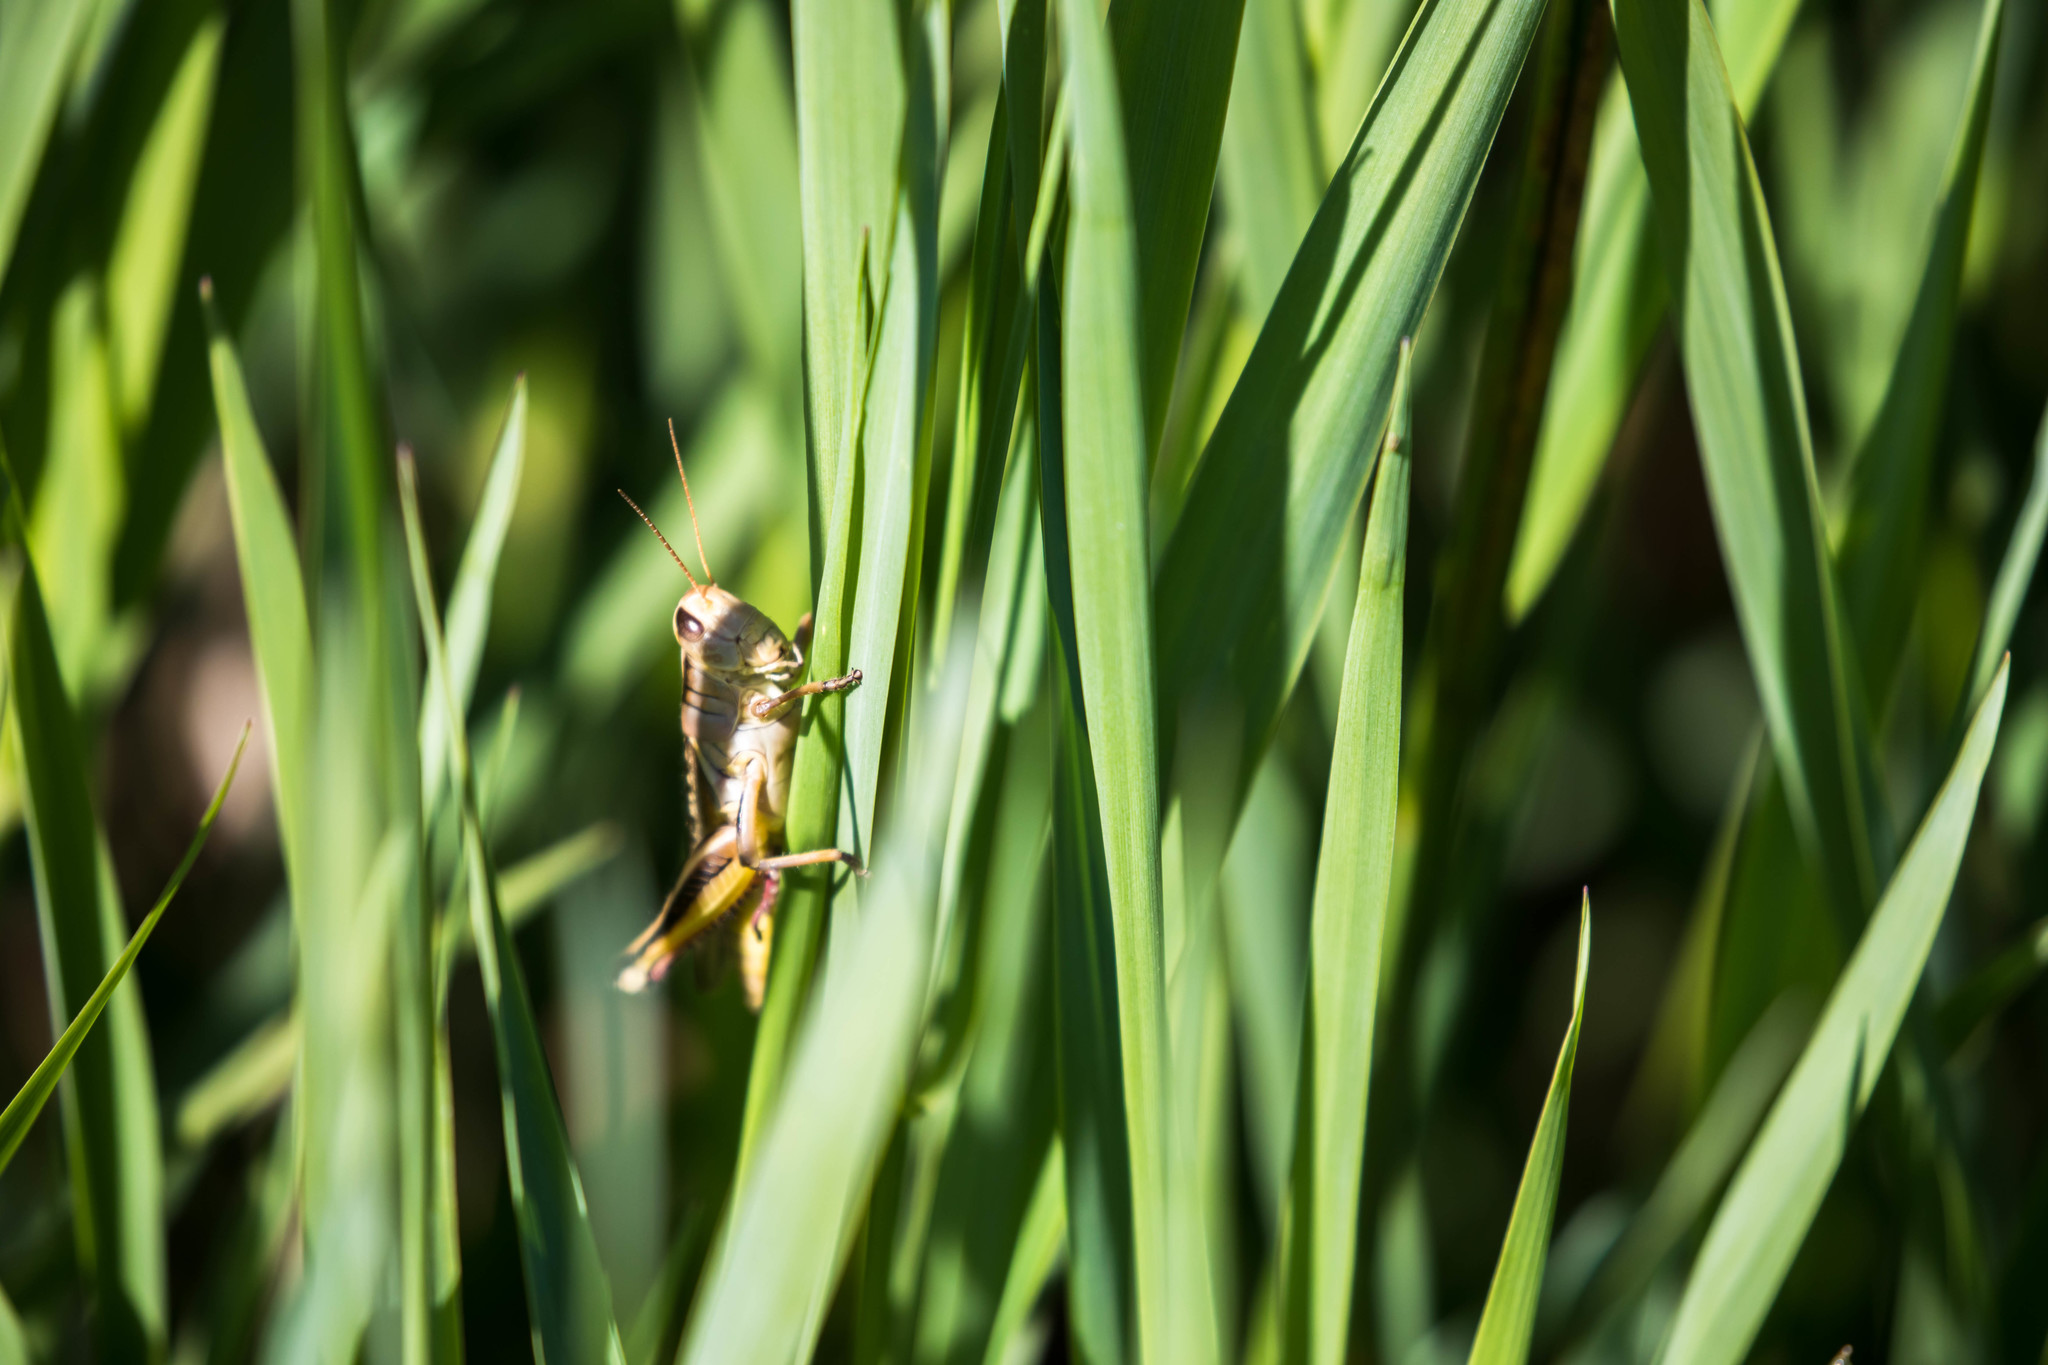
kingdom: Animalia
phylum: Arthropoda
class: Insecta
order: Orthoptera
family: Acrididae
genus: Melanoplus
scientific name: Melanoplus bivittatus
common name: Two-striped grasshopper
